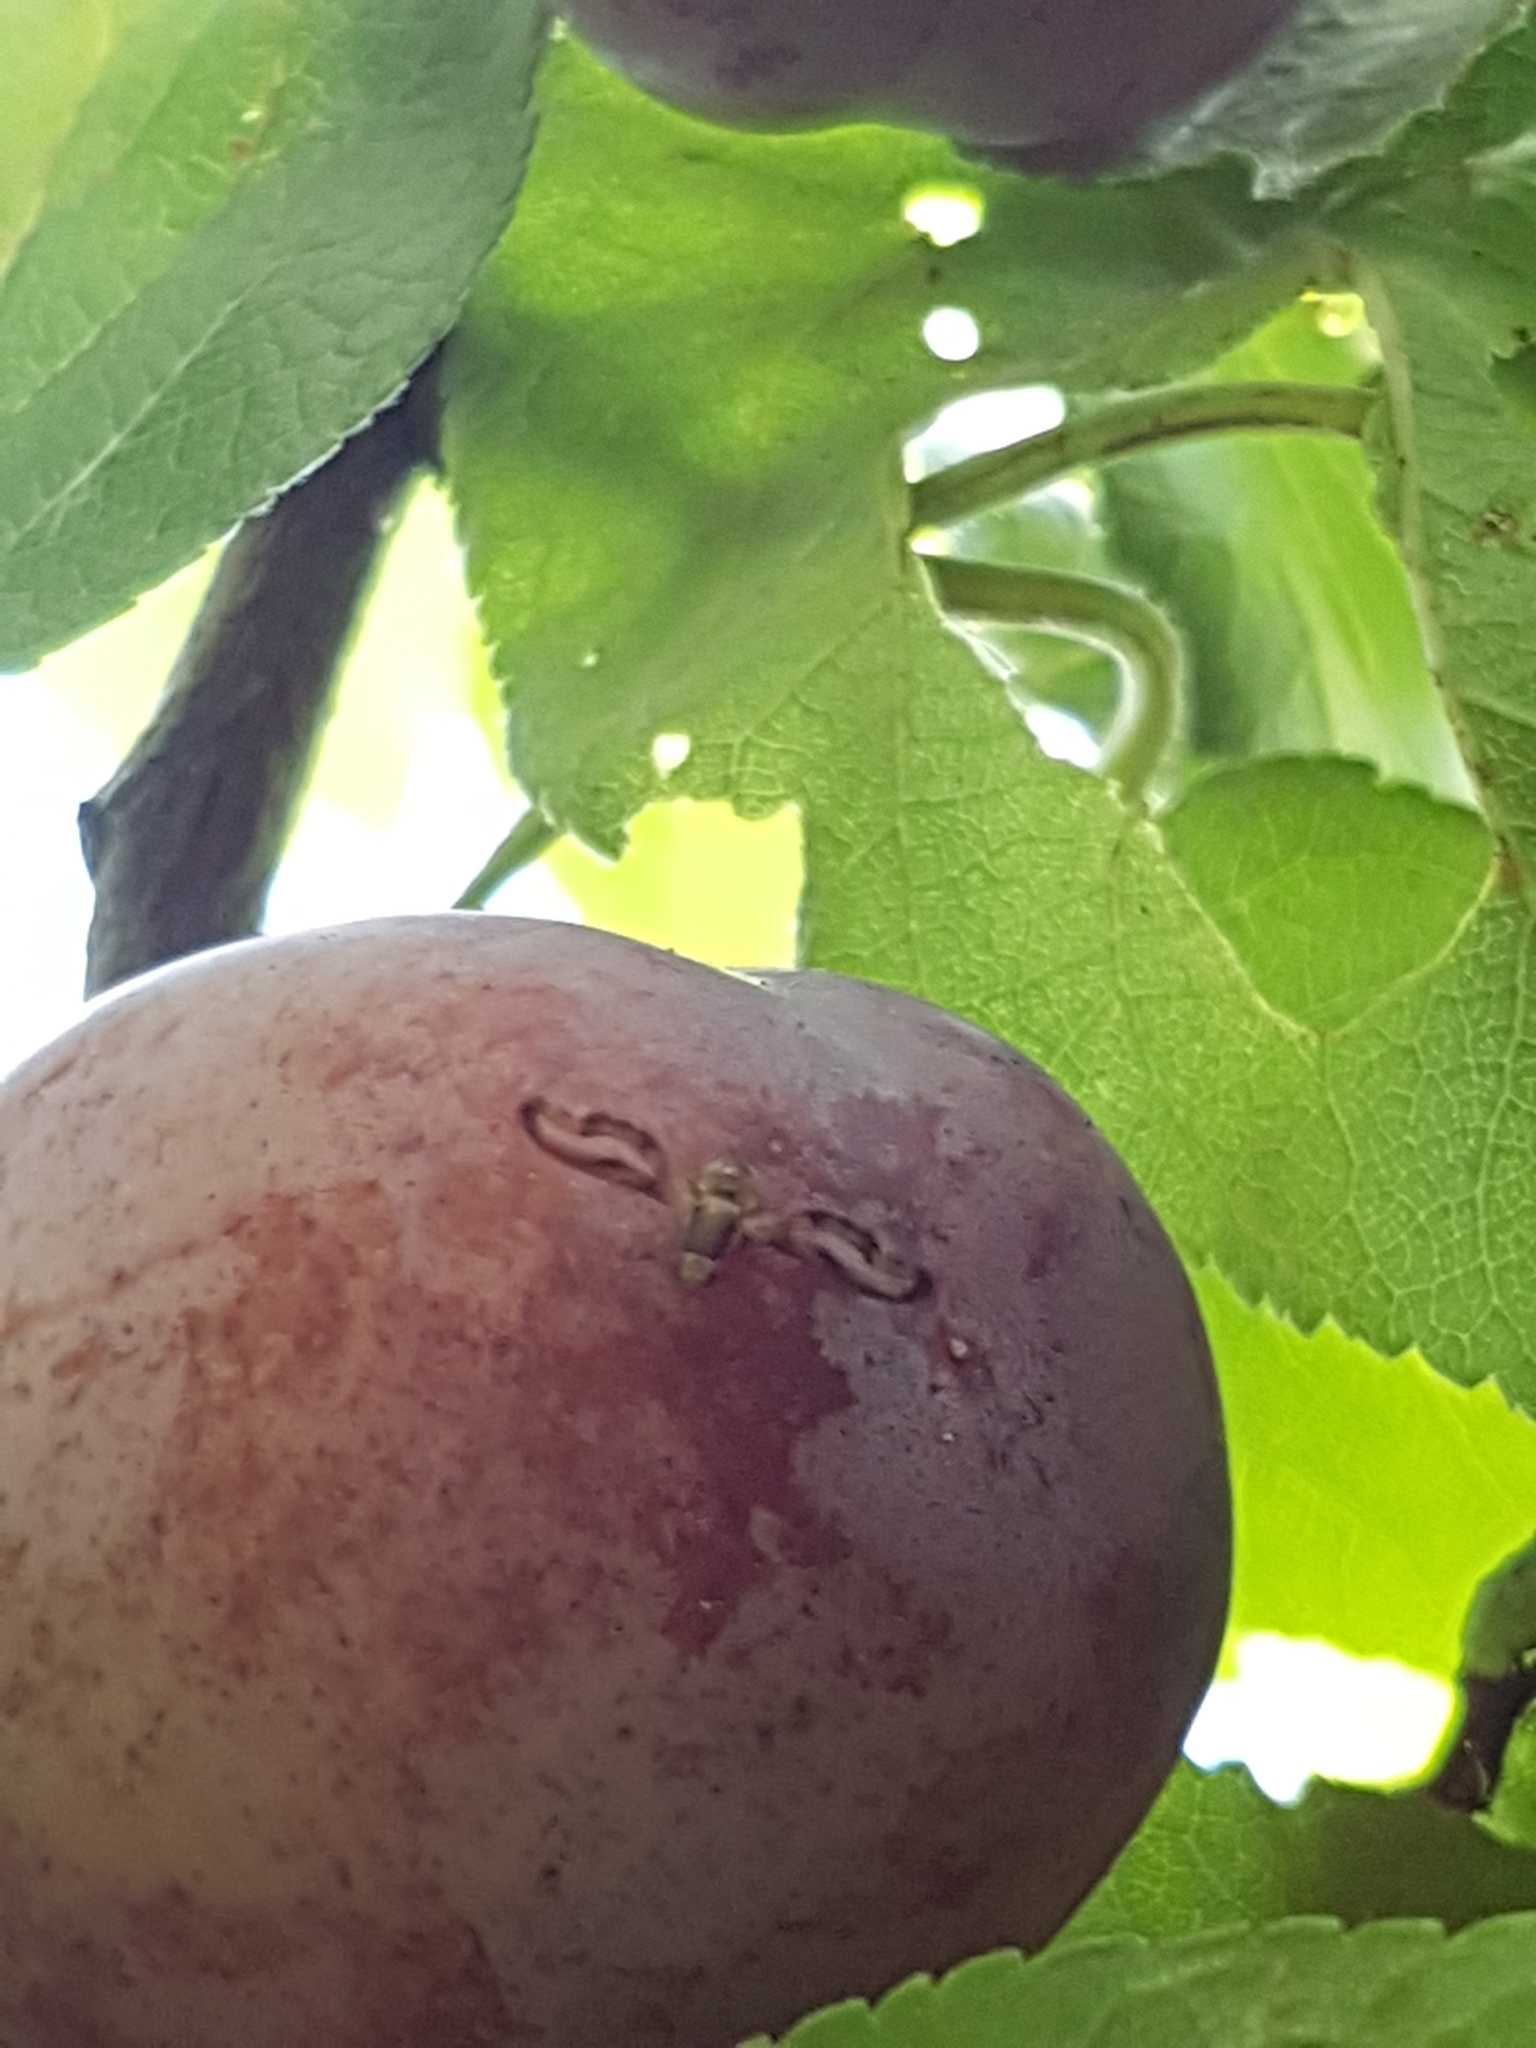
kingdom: Animalia
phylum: Arthropoda
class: Insecta
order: Diptera
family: Pallopteridae
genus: Toxonevra
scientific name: Toxonevra muliebris
